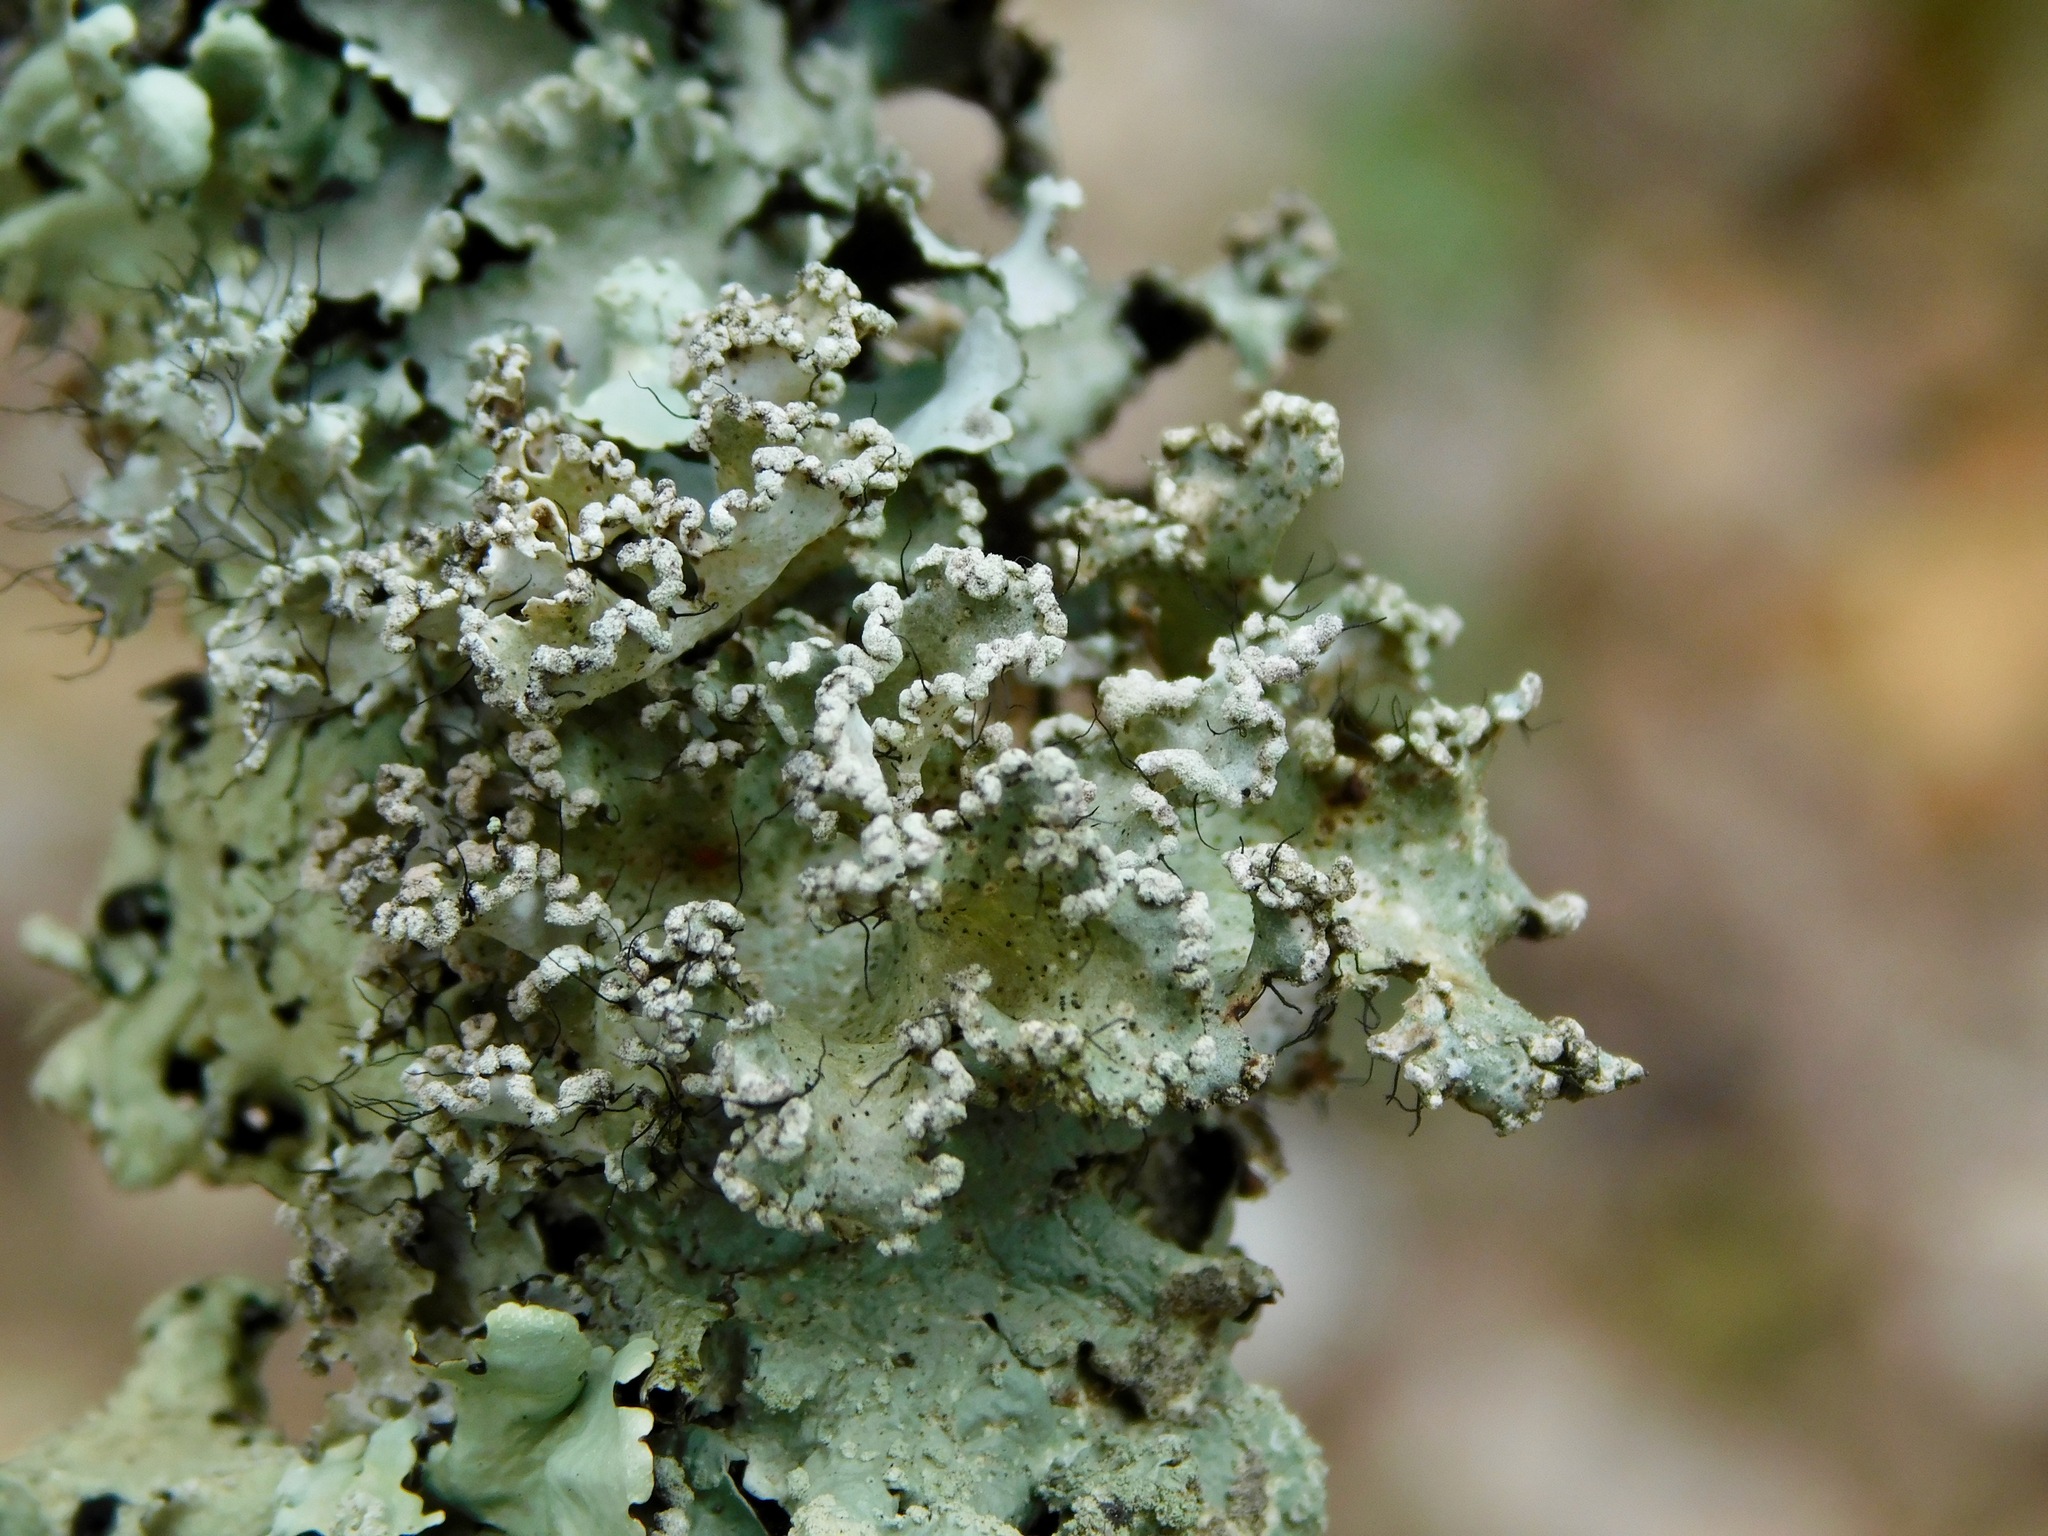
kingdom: Fungi
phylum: Ascomycota
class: Lecanoromycetes
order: Lecanorales
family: Parmeliaceae
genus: Parmotrema
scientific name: Parmotrema hypotropum
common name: Powdered ruffle lichen
